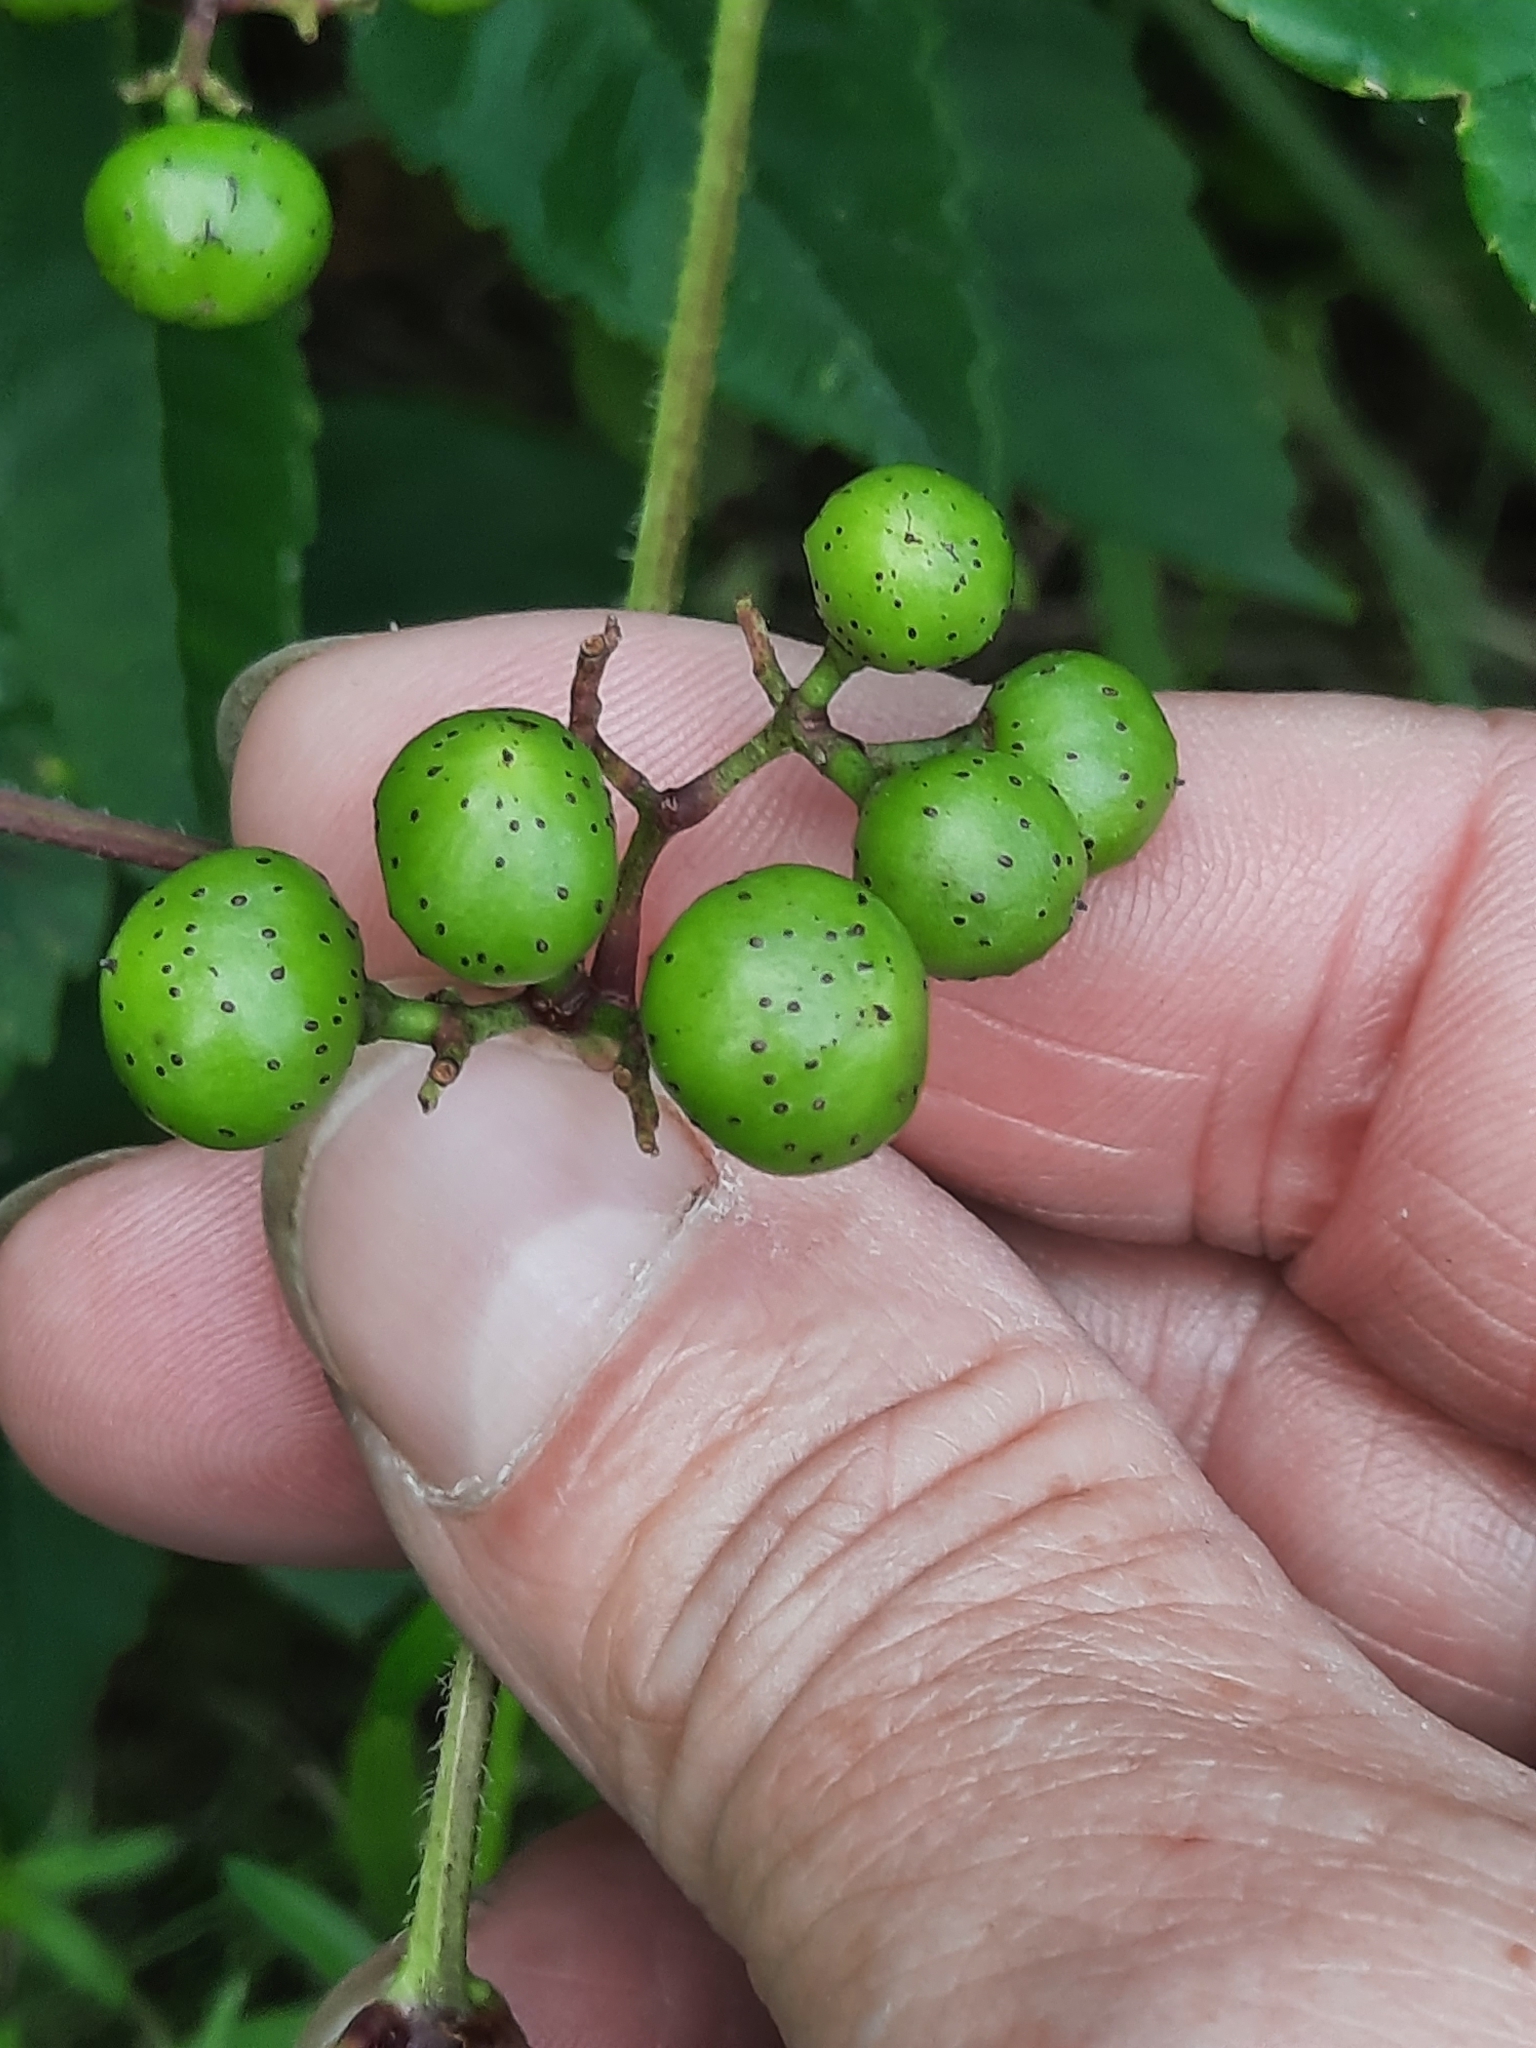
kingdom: Plantae
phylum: Tracheophyta
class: Magnoliopsida
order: Vitales
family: Vitaceae
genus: Ampelopsis
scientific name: Ampelopsis glandulosa
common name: Amur peppervine
